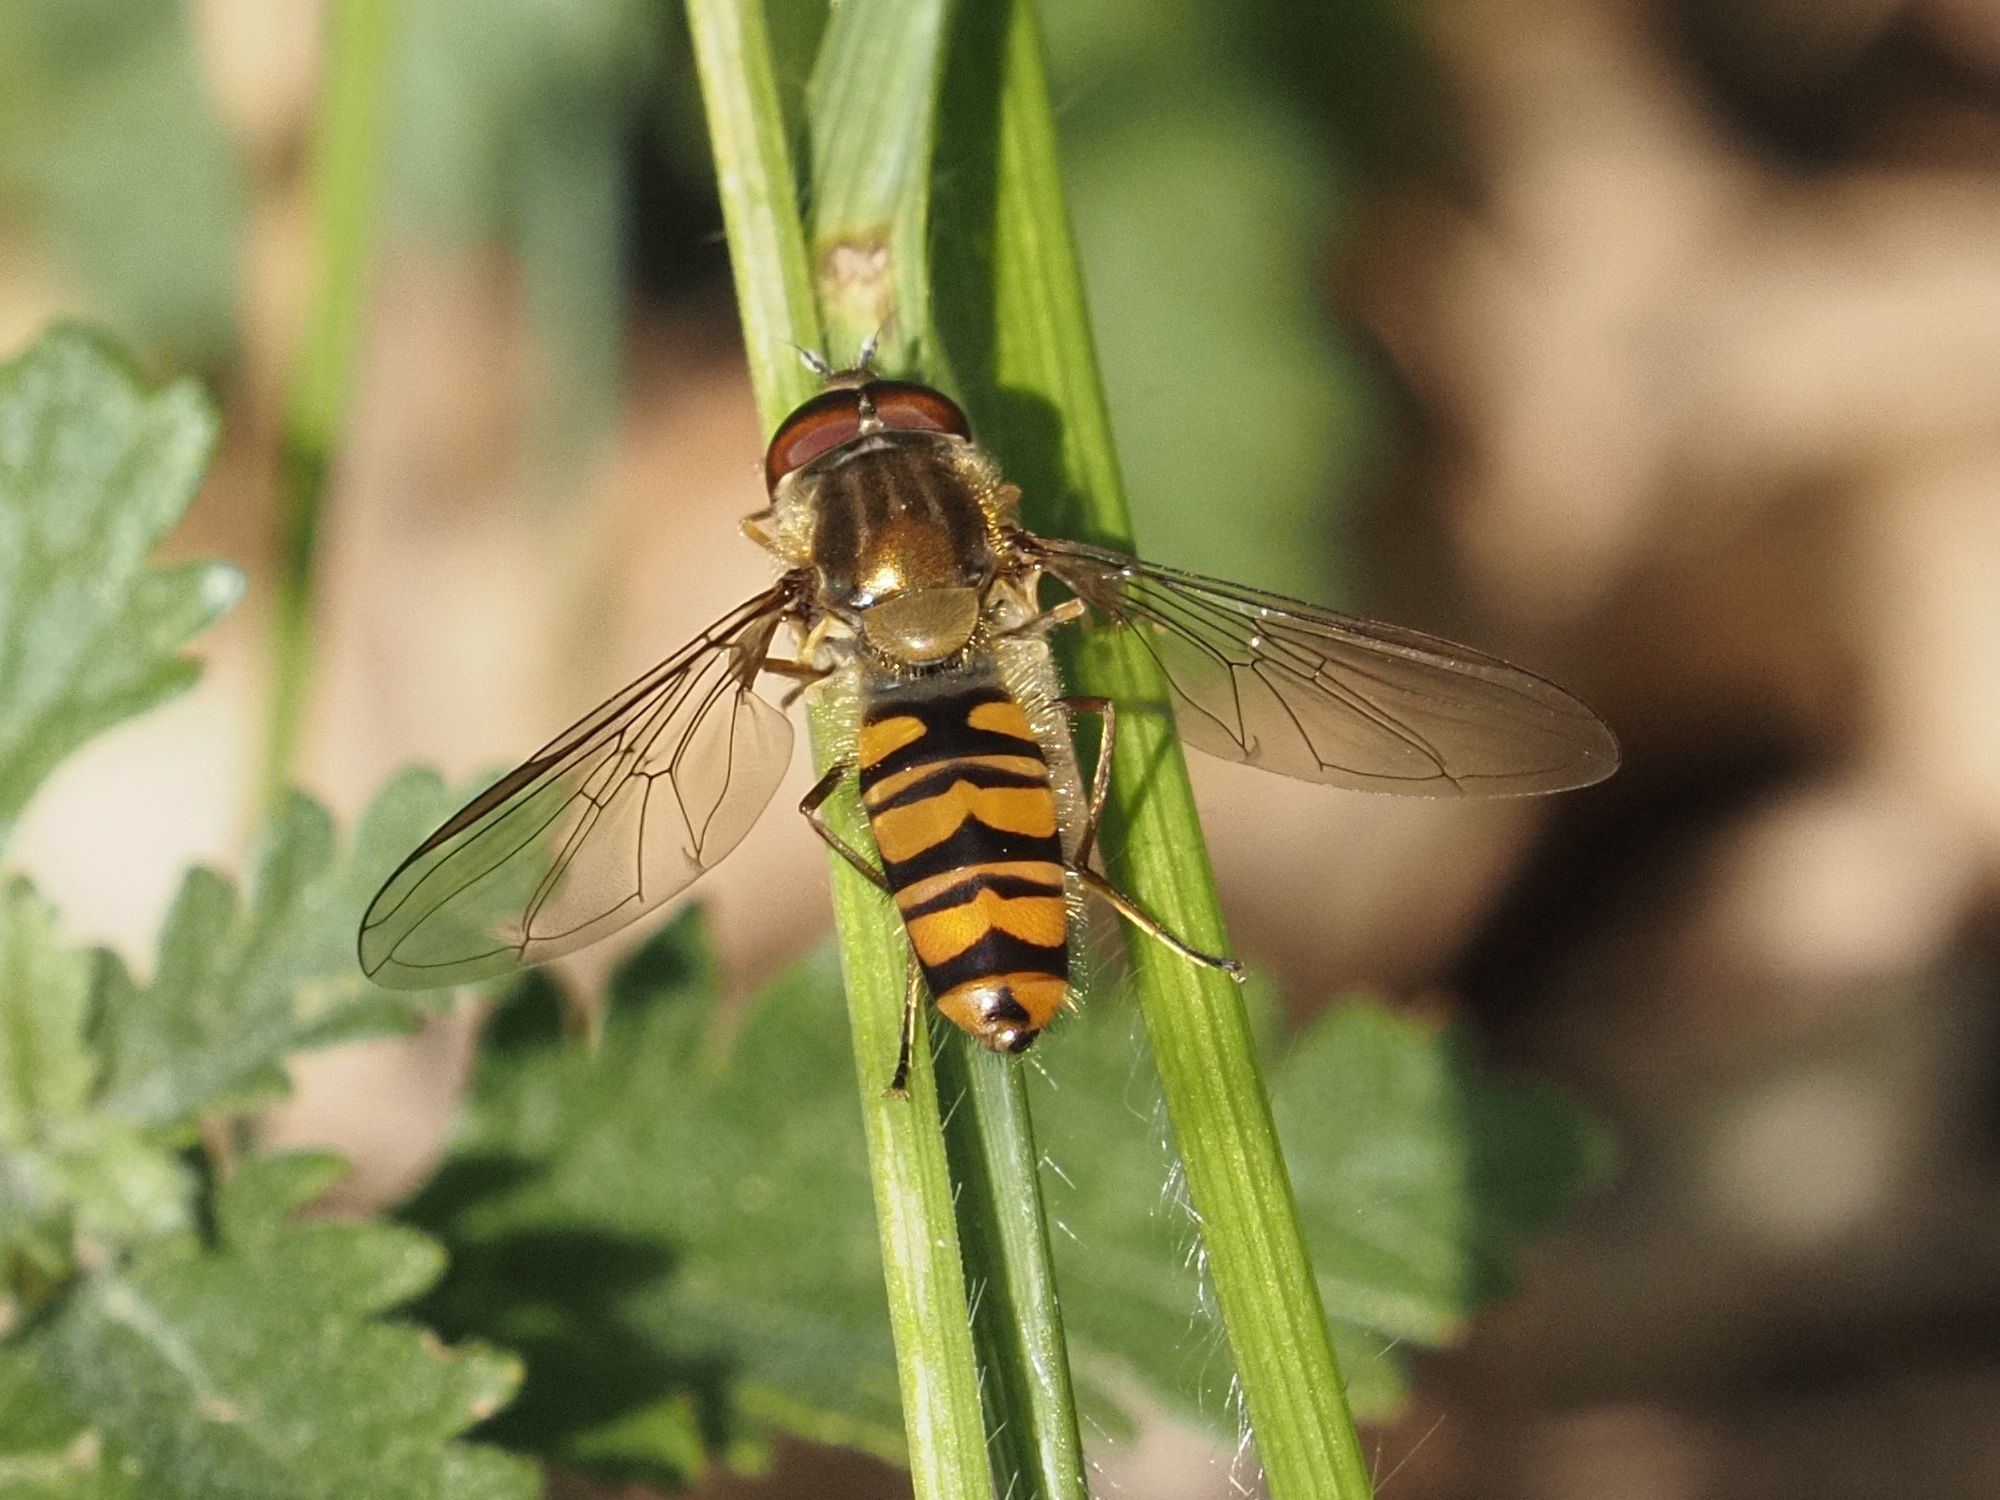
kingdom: Animalia
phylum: Arthropoda
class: Insecta
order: Diptera
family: Syrphidae
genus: Episyrphus
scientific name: Episyrphus balteatus
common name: Marmalade hoverfly
